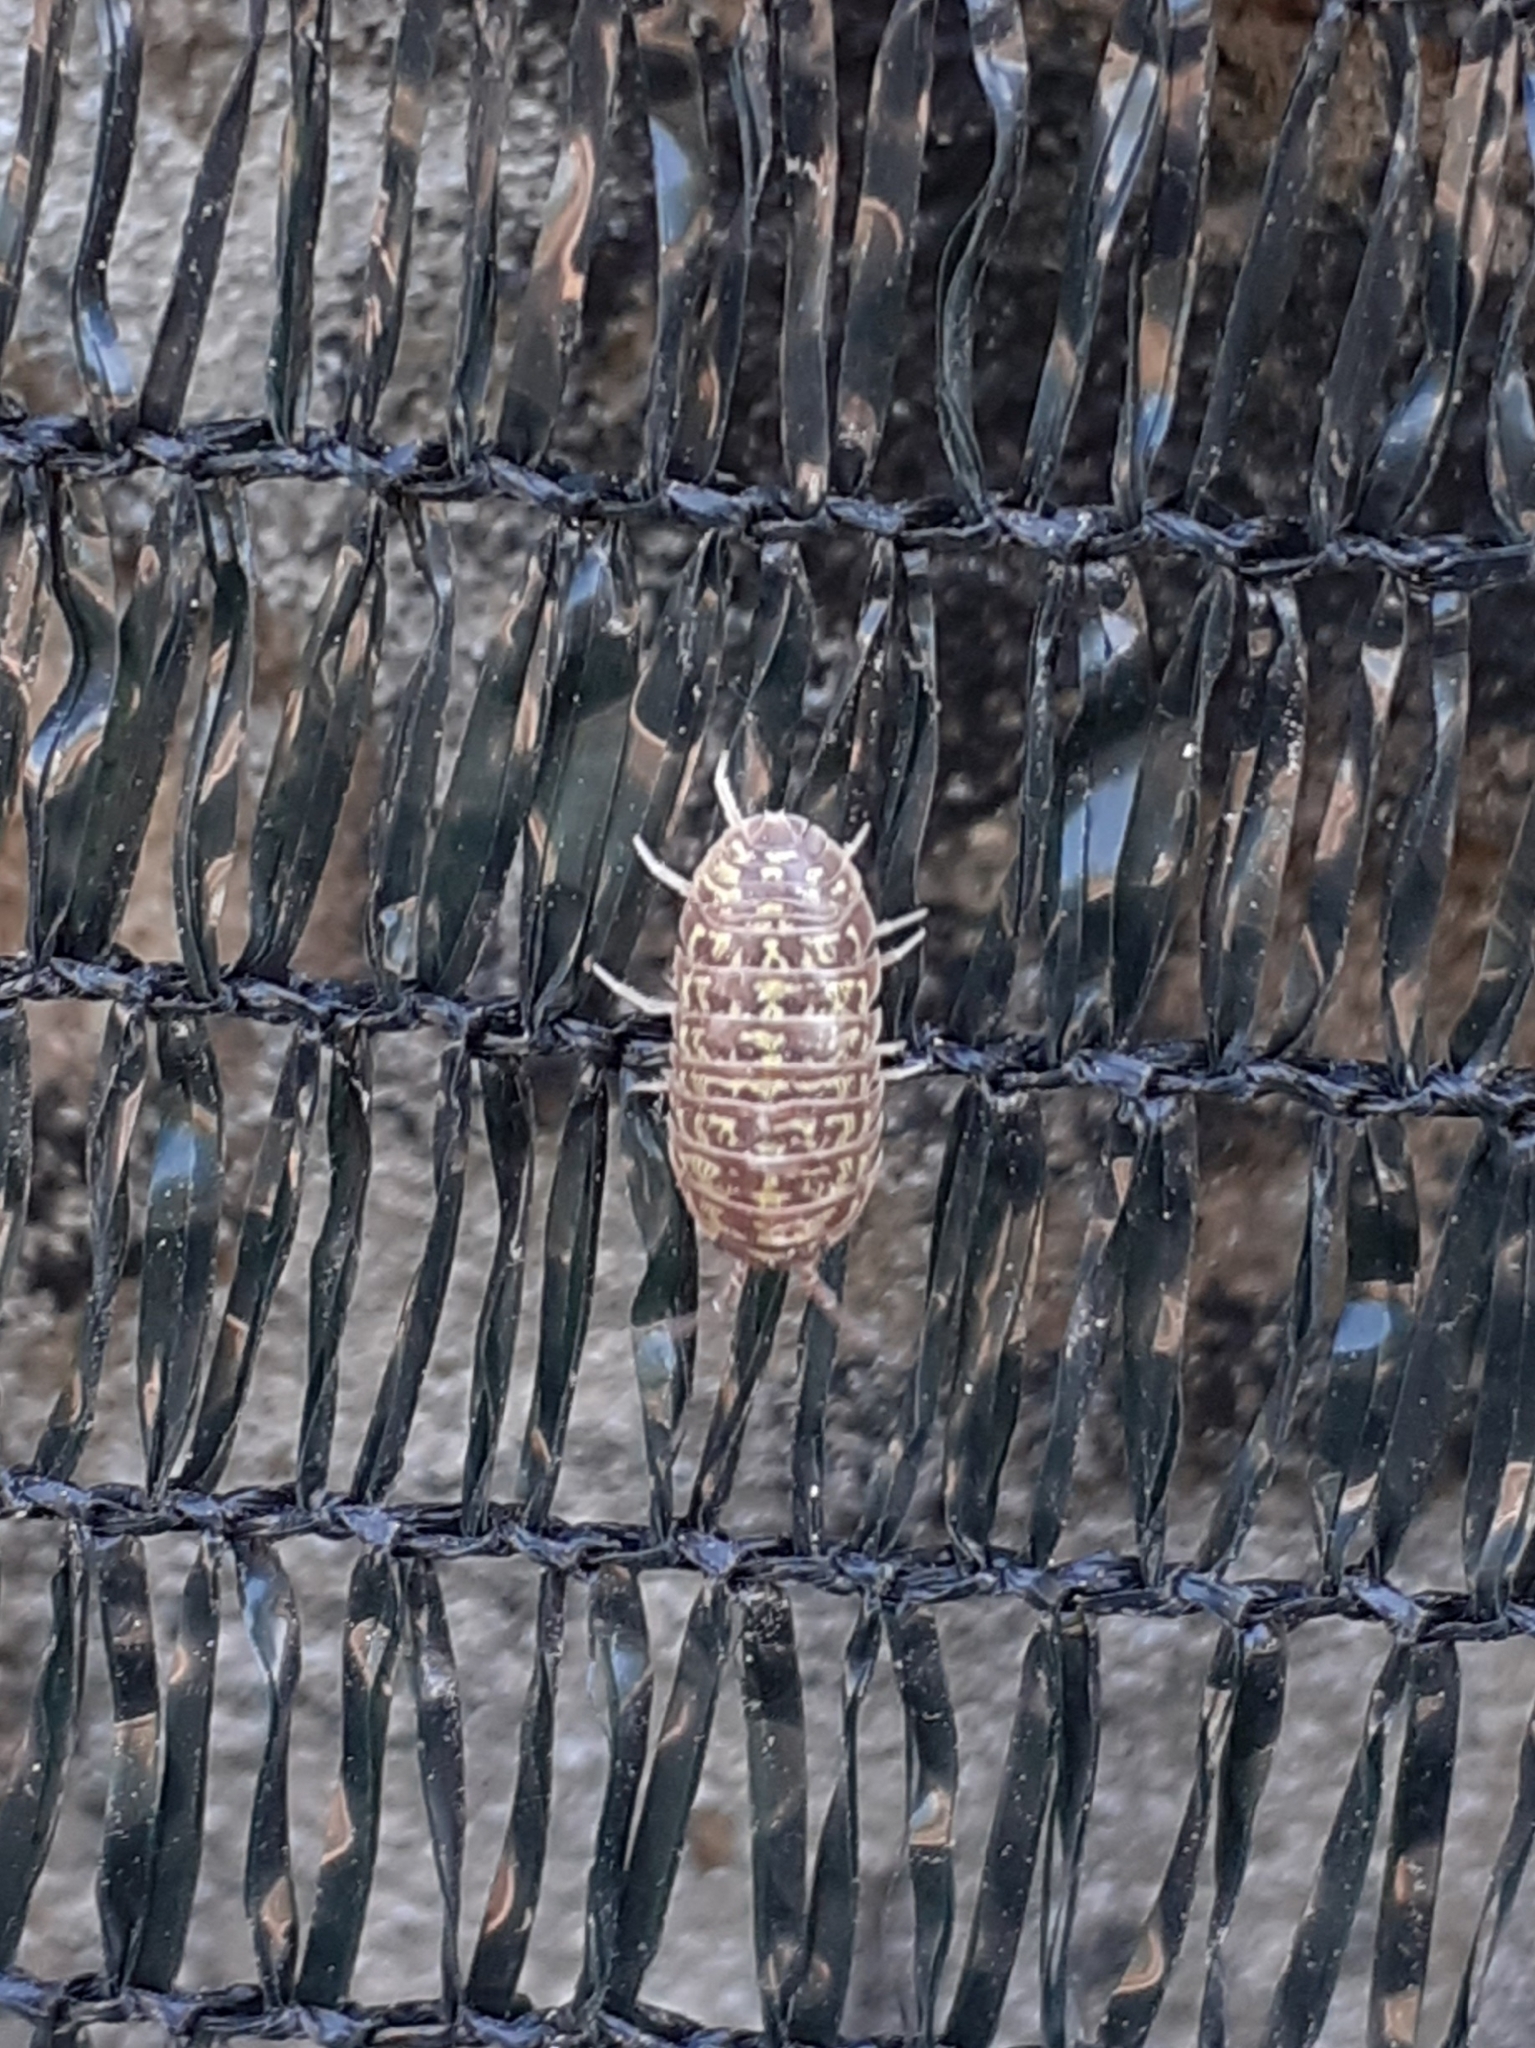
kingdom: Animalia
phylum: Arthropoda
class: Malacostraca
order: Isopoda
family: Armadillidiidae
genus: Armadillidium
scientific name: Armadillidium versicolor
